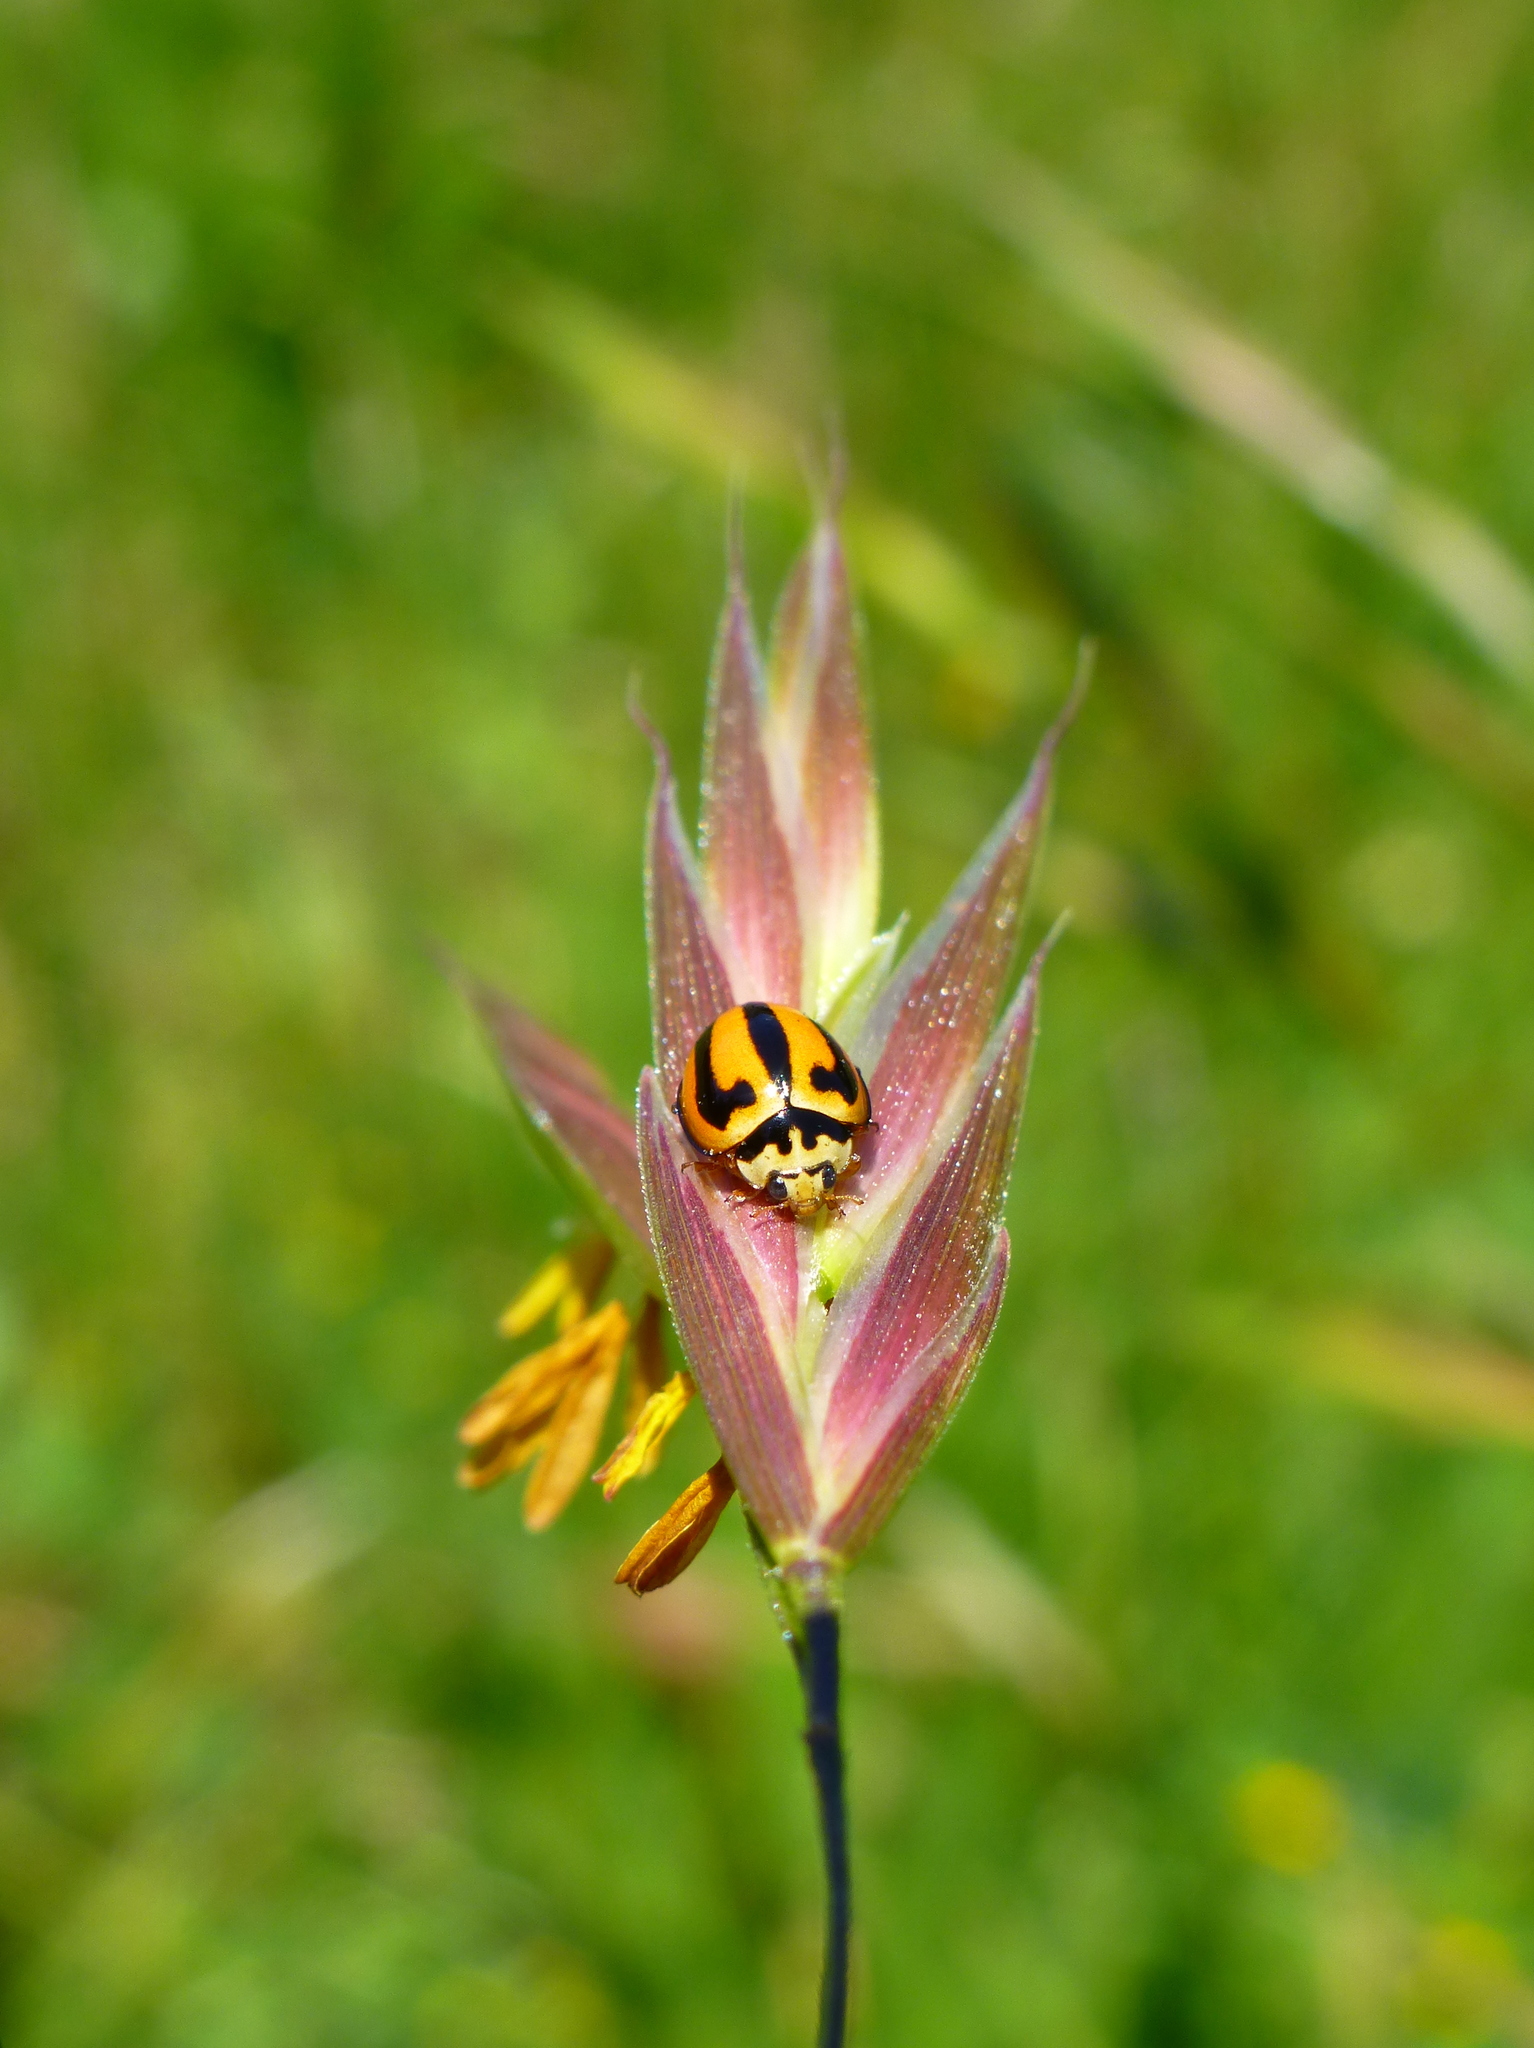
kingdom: Animalia
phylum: Arthropoda
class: Insecta
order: Coleoptera
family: Coccinellidae
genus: Micraspis
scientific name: Micraspis frenata
